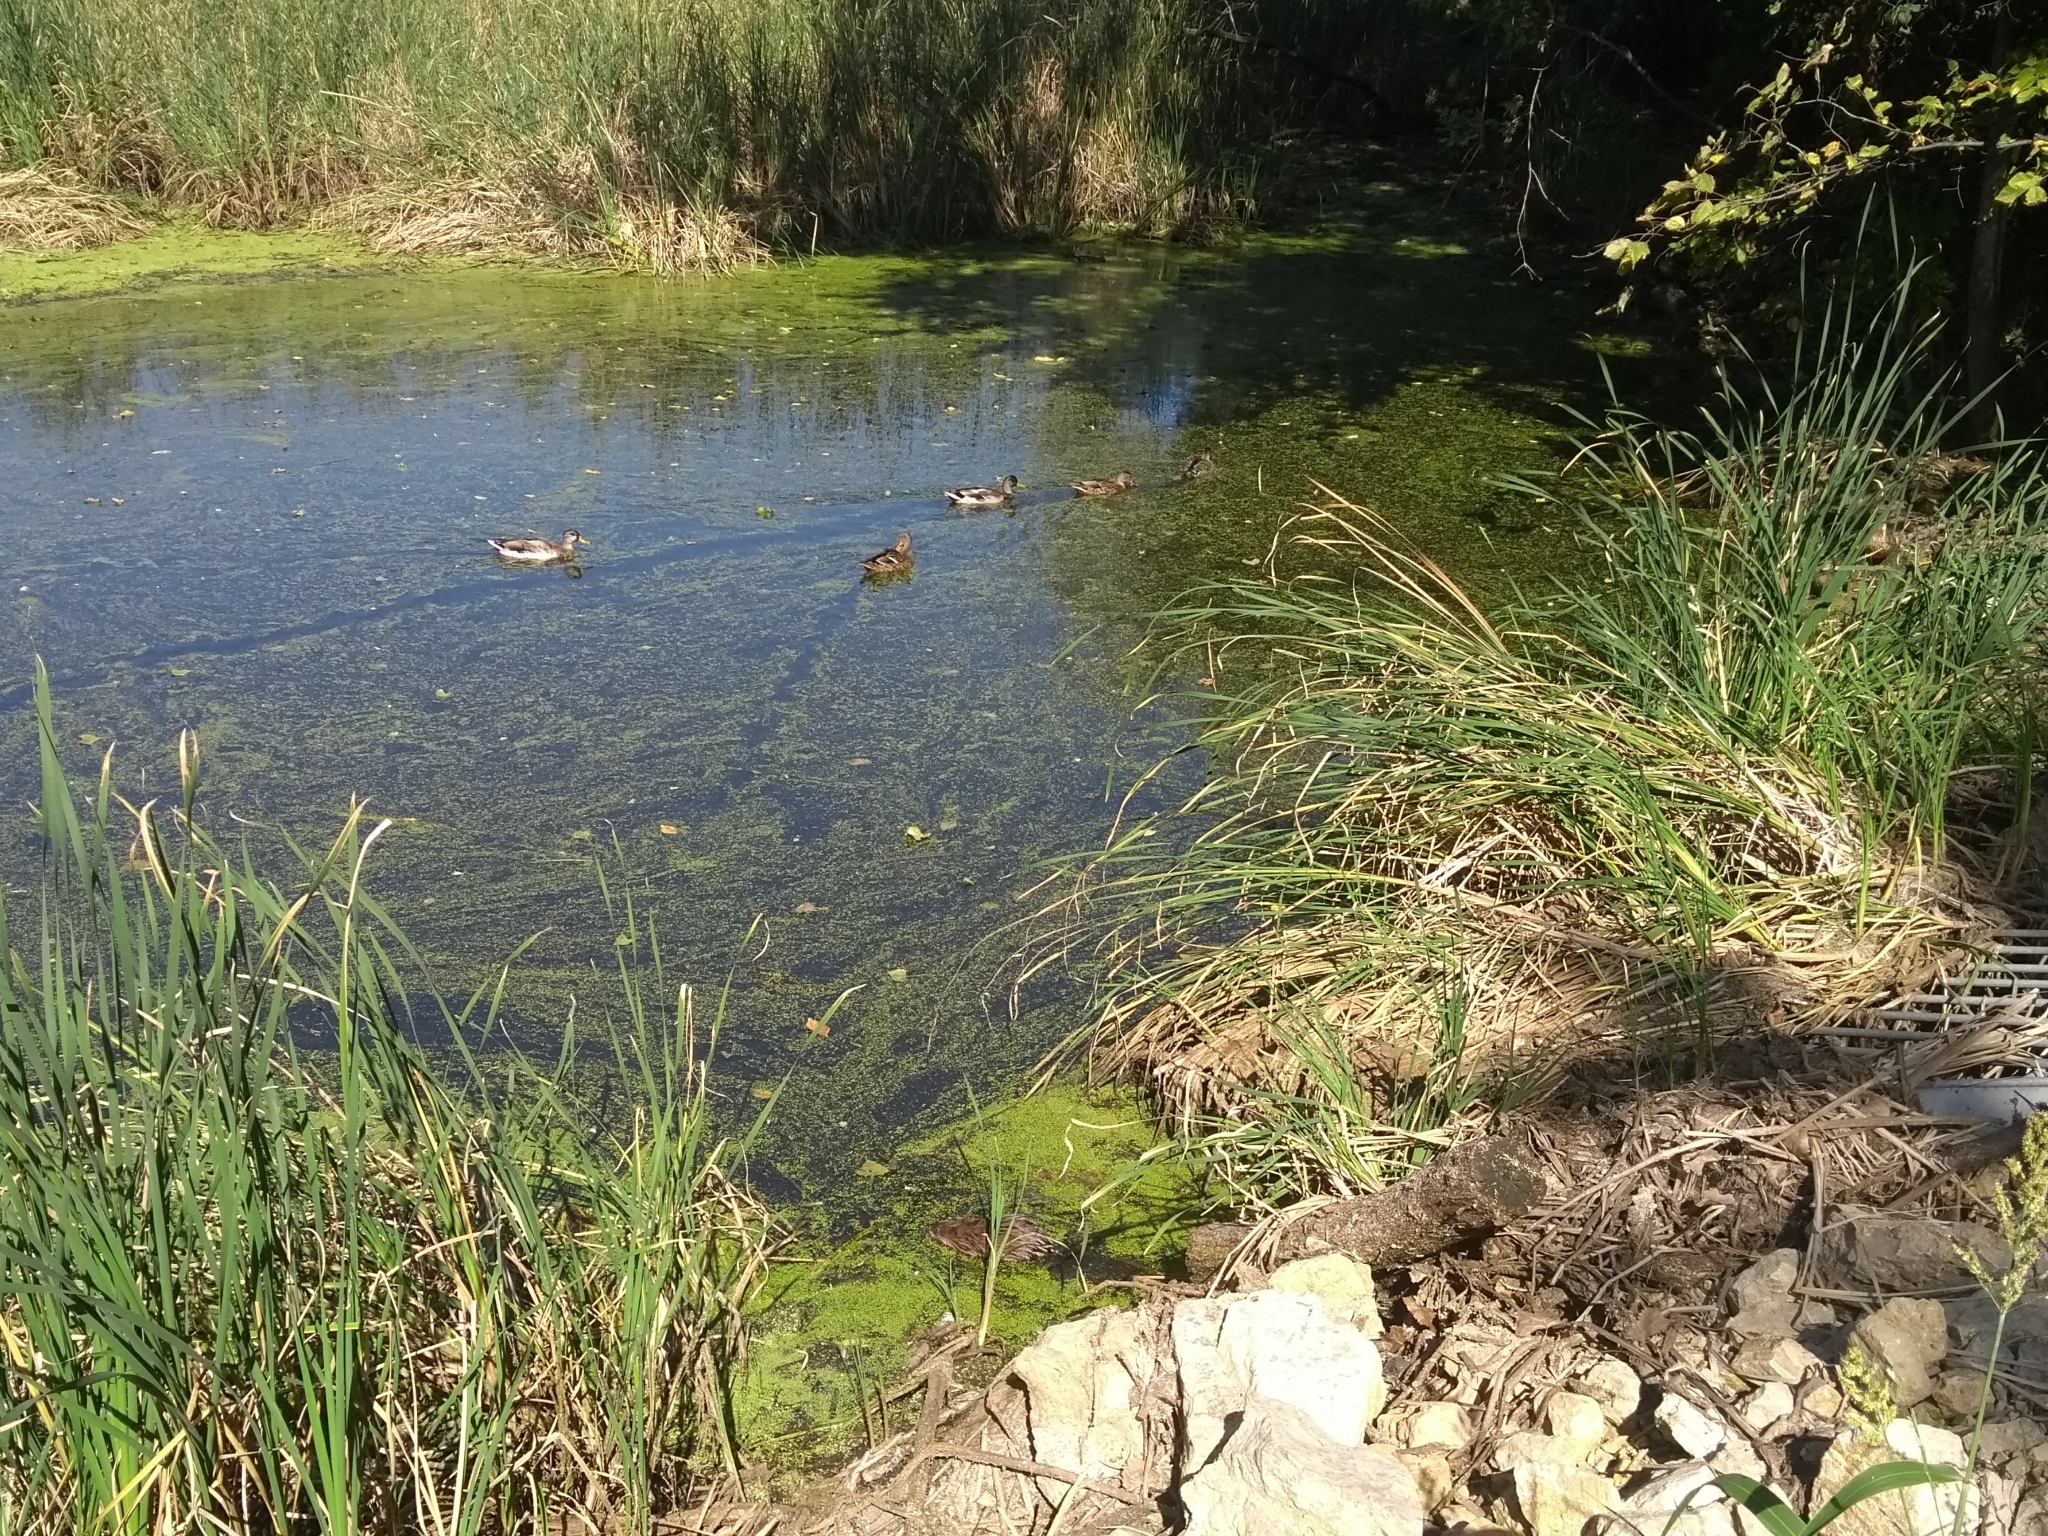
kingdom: Animalia
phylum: Chordata
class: Mammalia
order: Rodentia
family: Cricetidae
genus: Ondatra
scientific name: Ondatra zibethicus
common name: Muskrat
